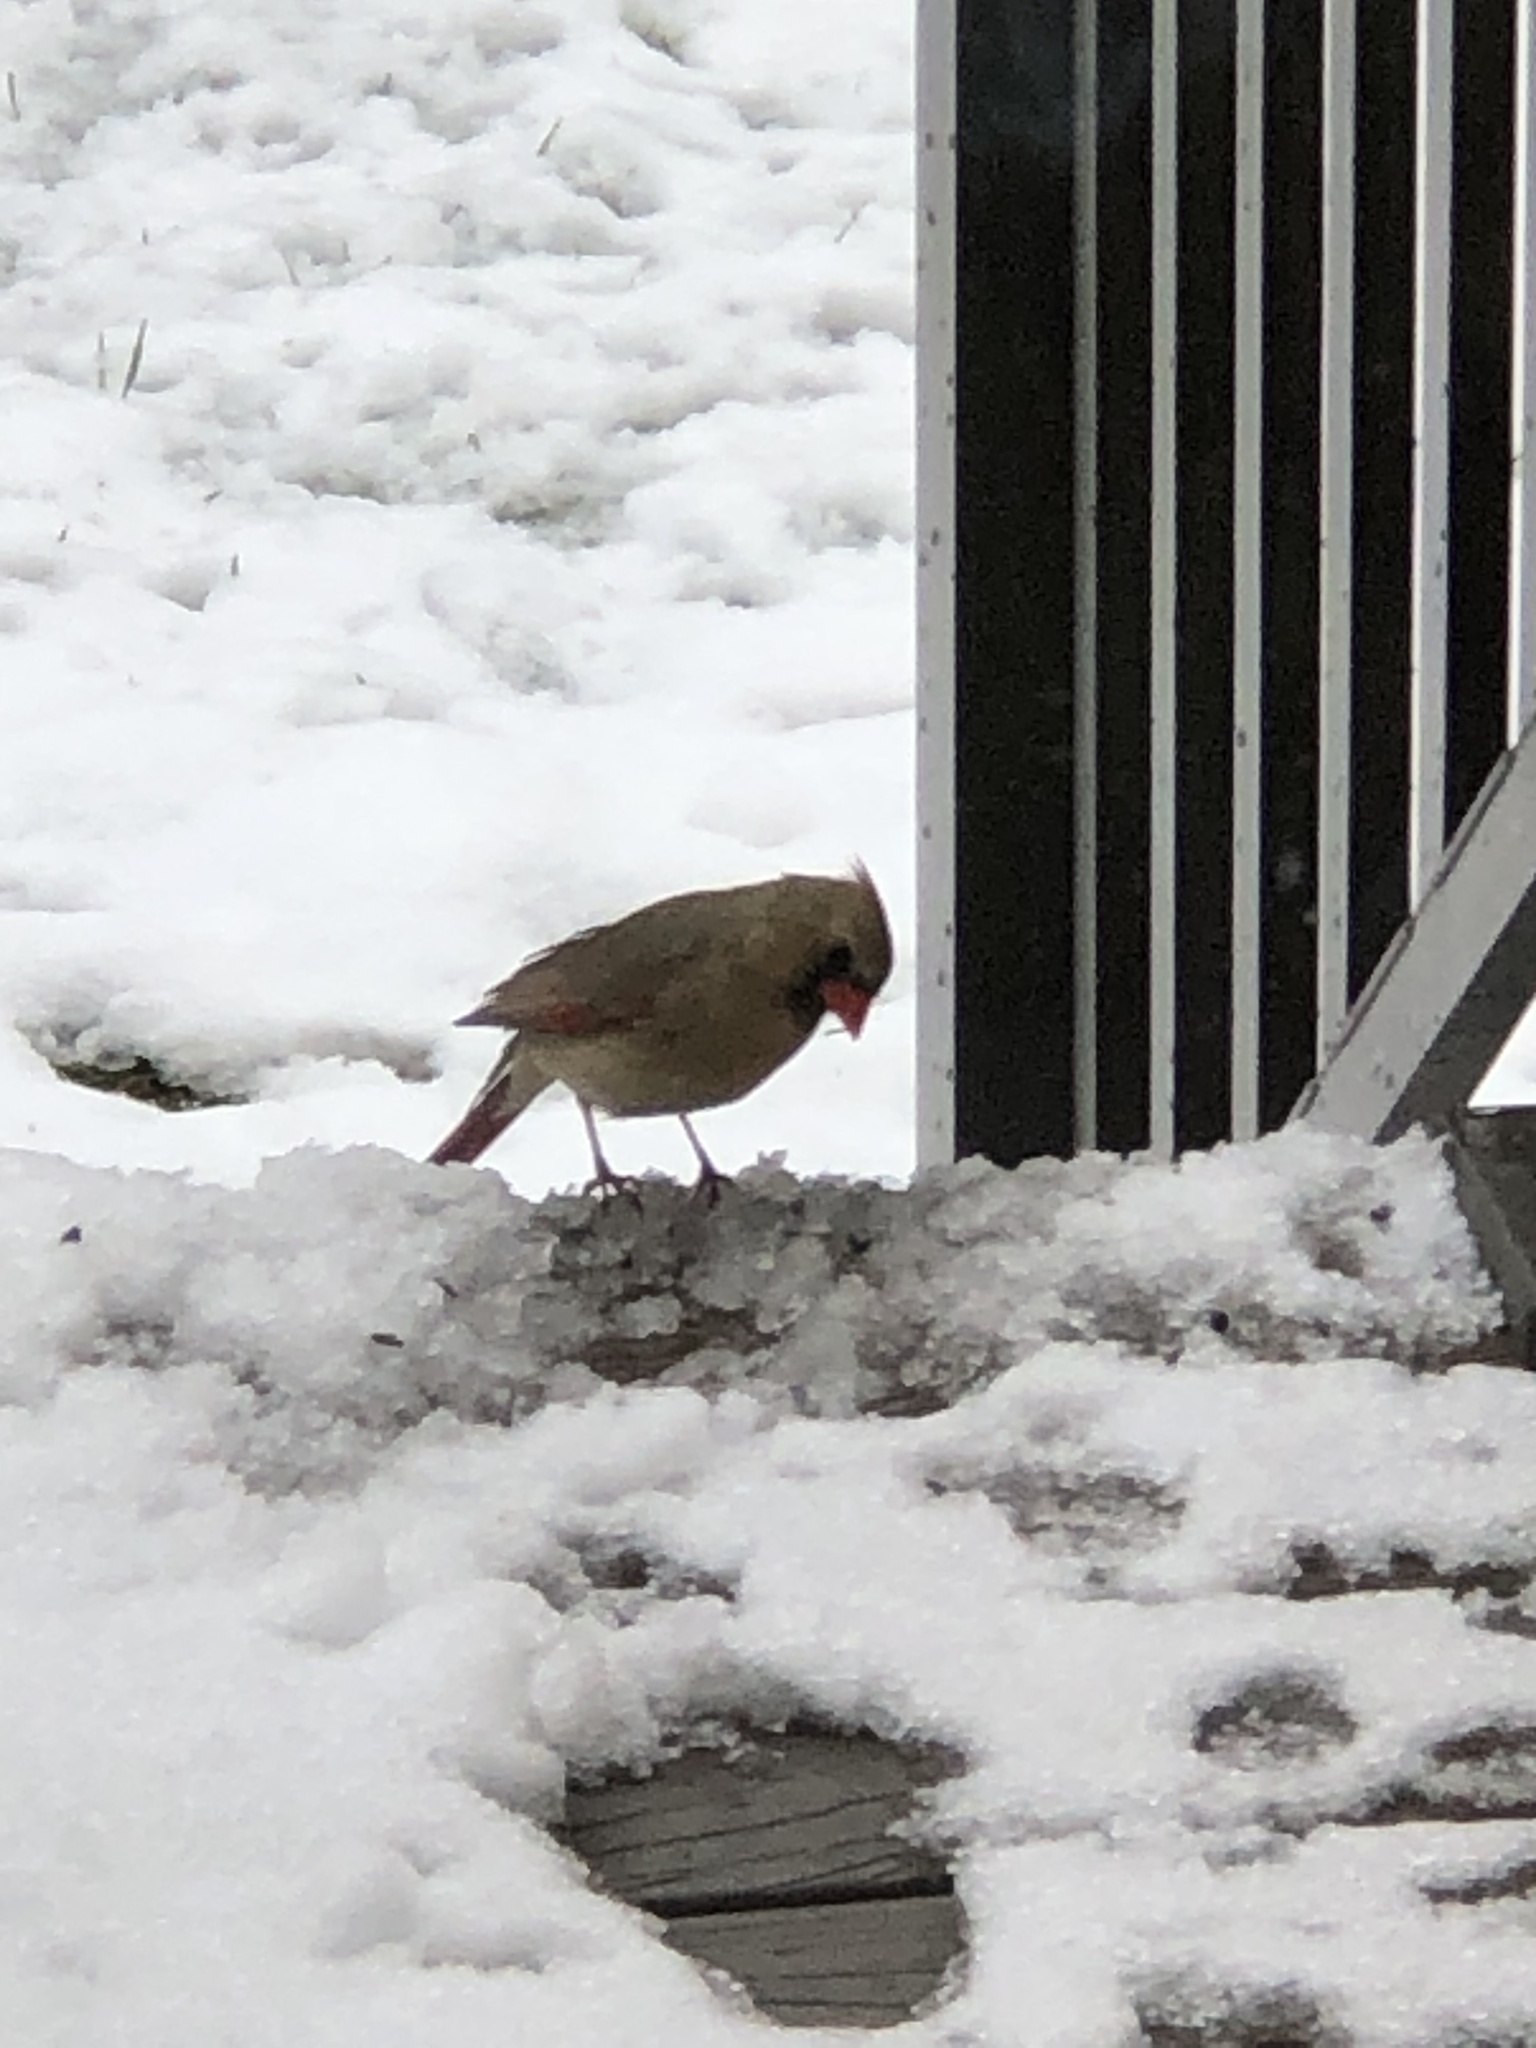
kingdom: Animalia
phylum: Chordata
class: Aves
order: Passeriformes
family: Cardinalidae
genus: Cardinalis
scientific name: Cardinalis cardinalis
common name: Northern cardinal
